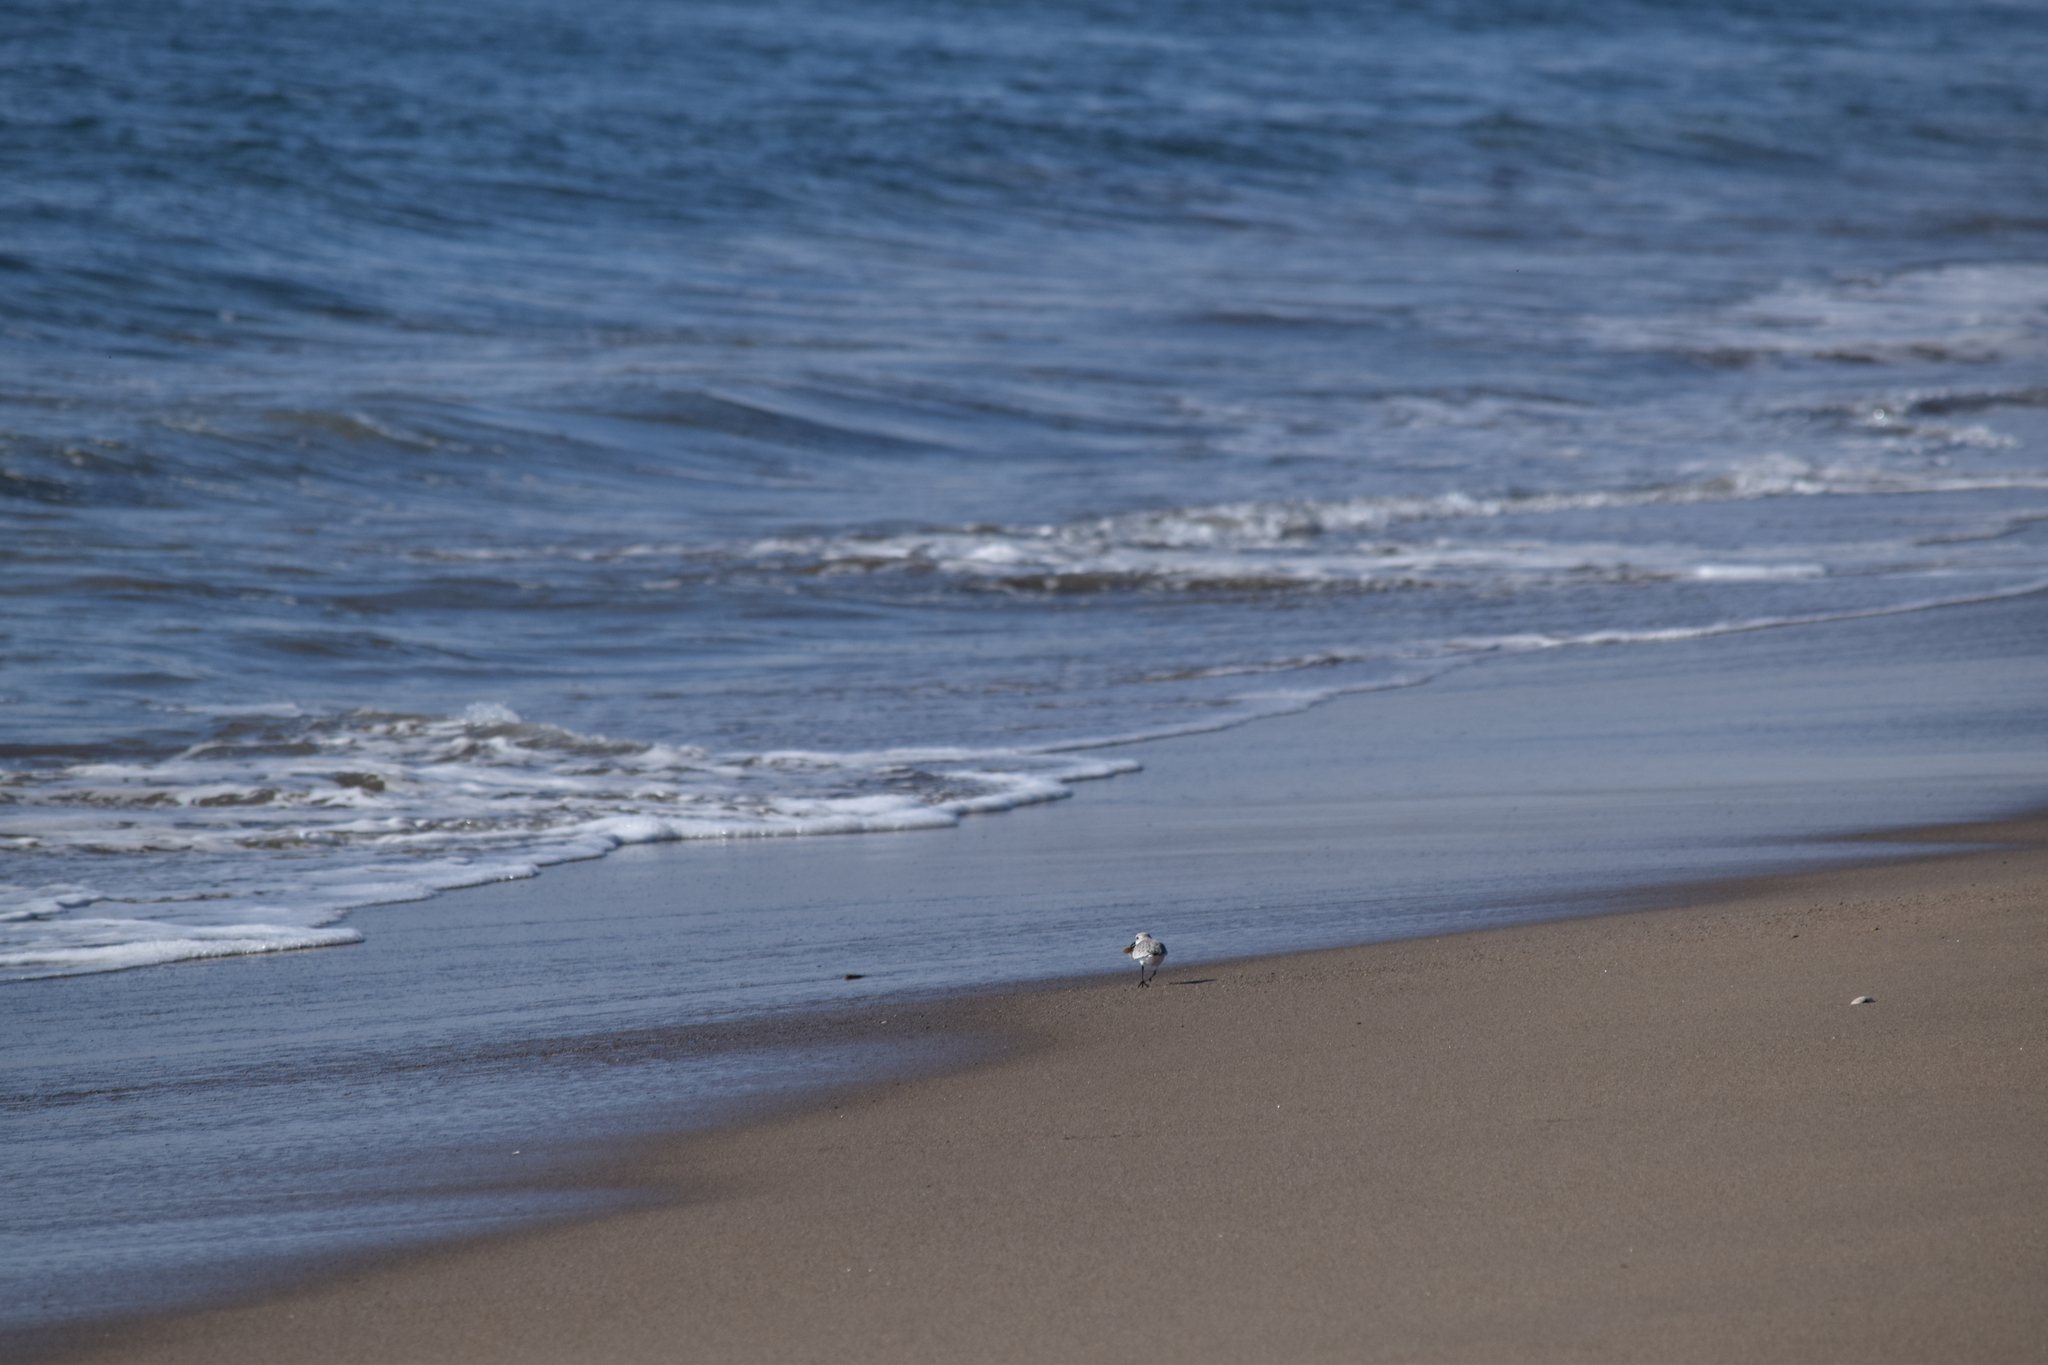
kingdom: Animalia
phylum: Chordata
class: Aves
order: Charadriiformes
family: Scolopacidae
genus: Calidris
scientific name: Calidris alba
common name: Sanderling
